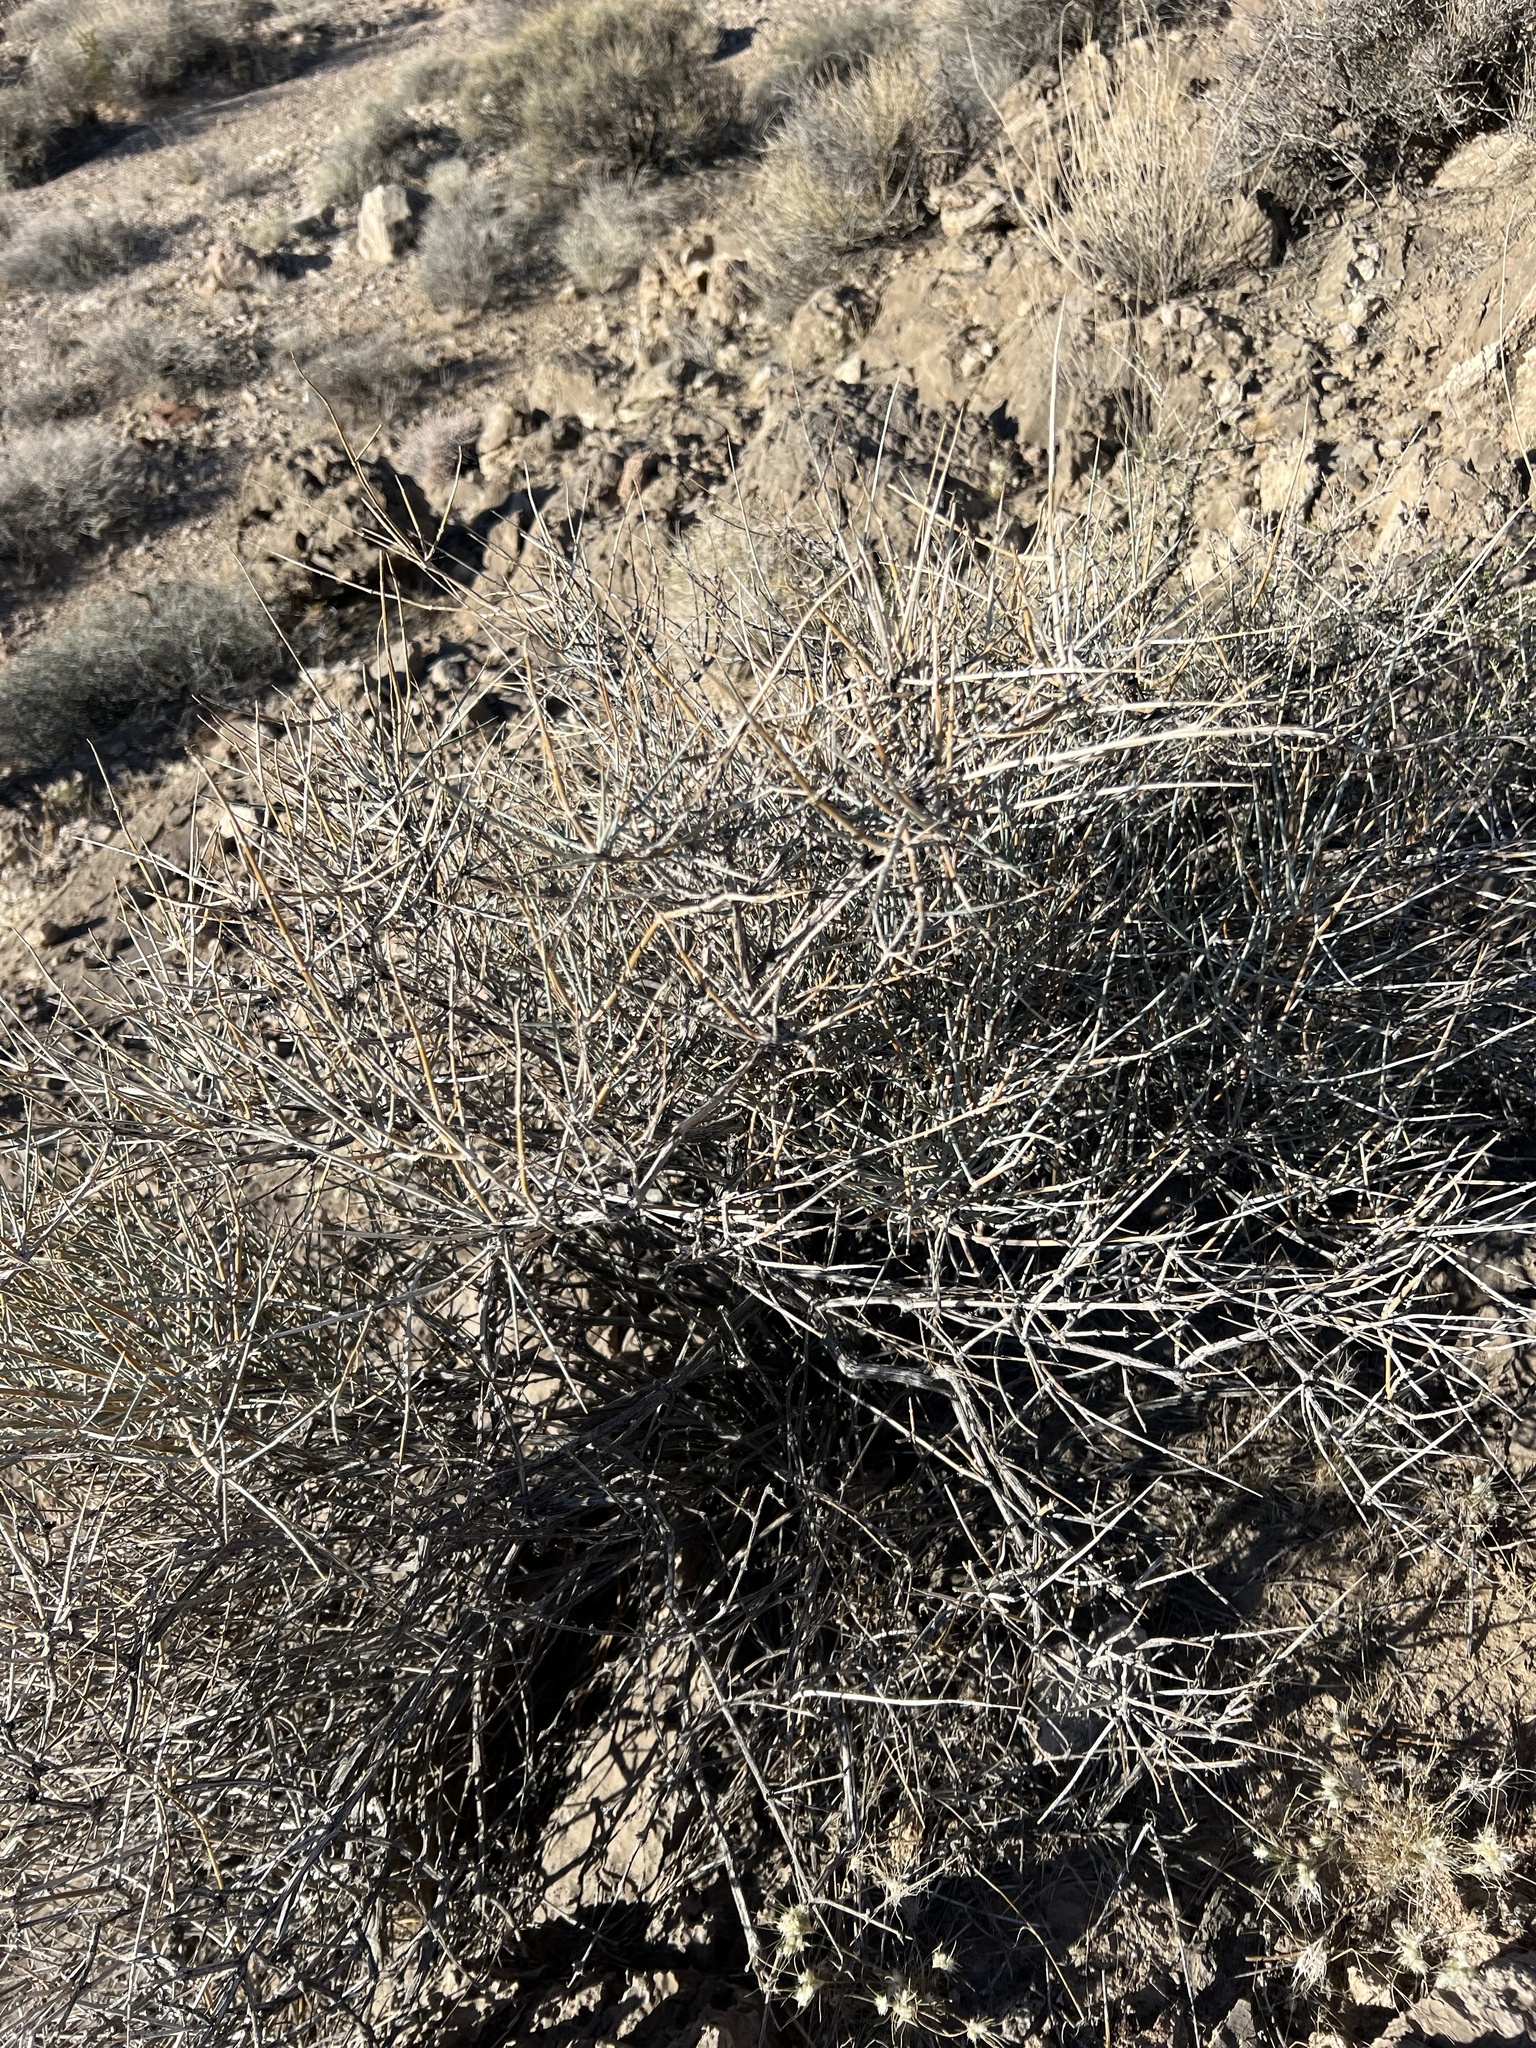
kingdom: Plantae
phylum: Tracheophyta
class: Gnetopsida
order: Ephedrales
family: Ephedraceae
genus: Ephedra
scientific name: Ephedra nevadensis
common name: Gray ephedra
